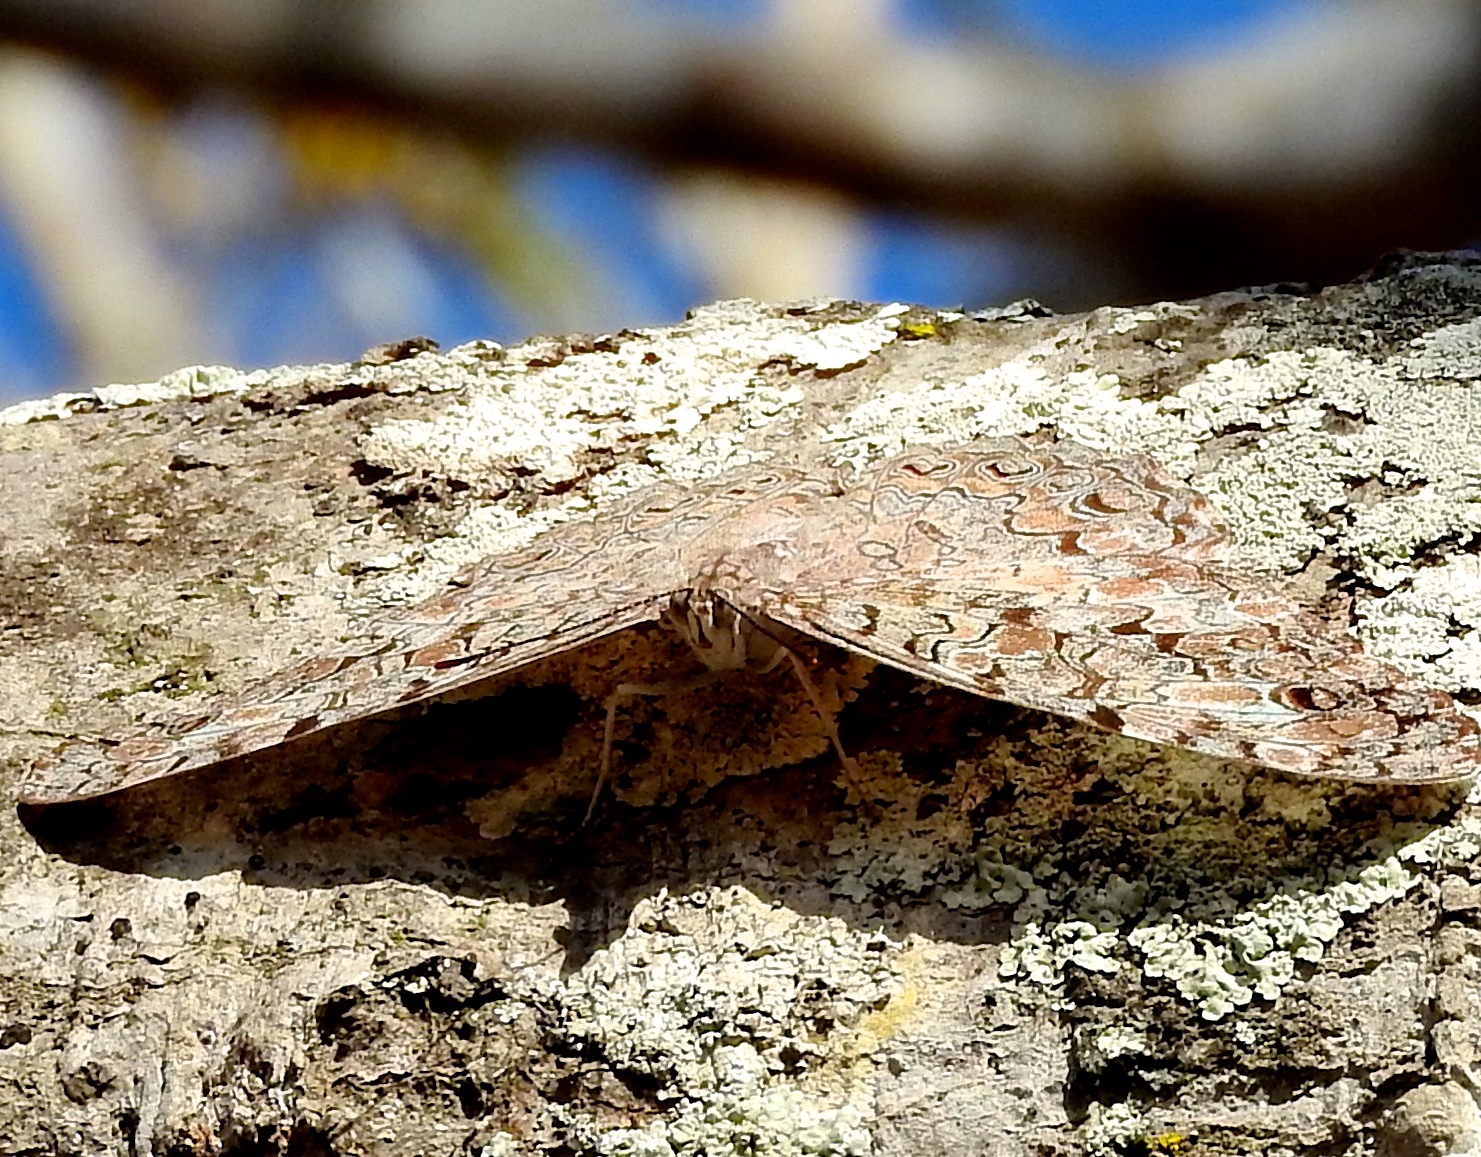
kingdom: Animalia
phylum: Arthropoda
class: Insecta
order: Lepidoptera
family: Nymphalidae
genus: Hamadryas
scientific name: Hamadryas februa
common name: Gray cracker
